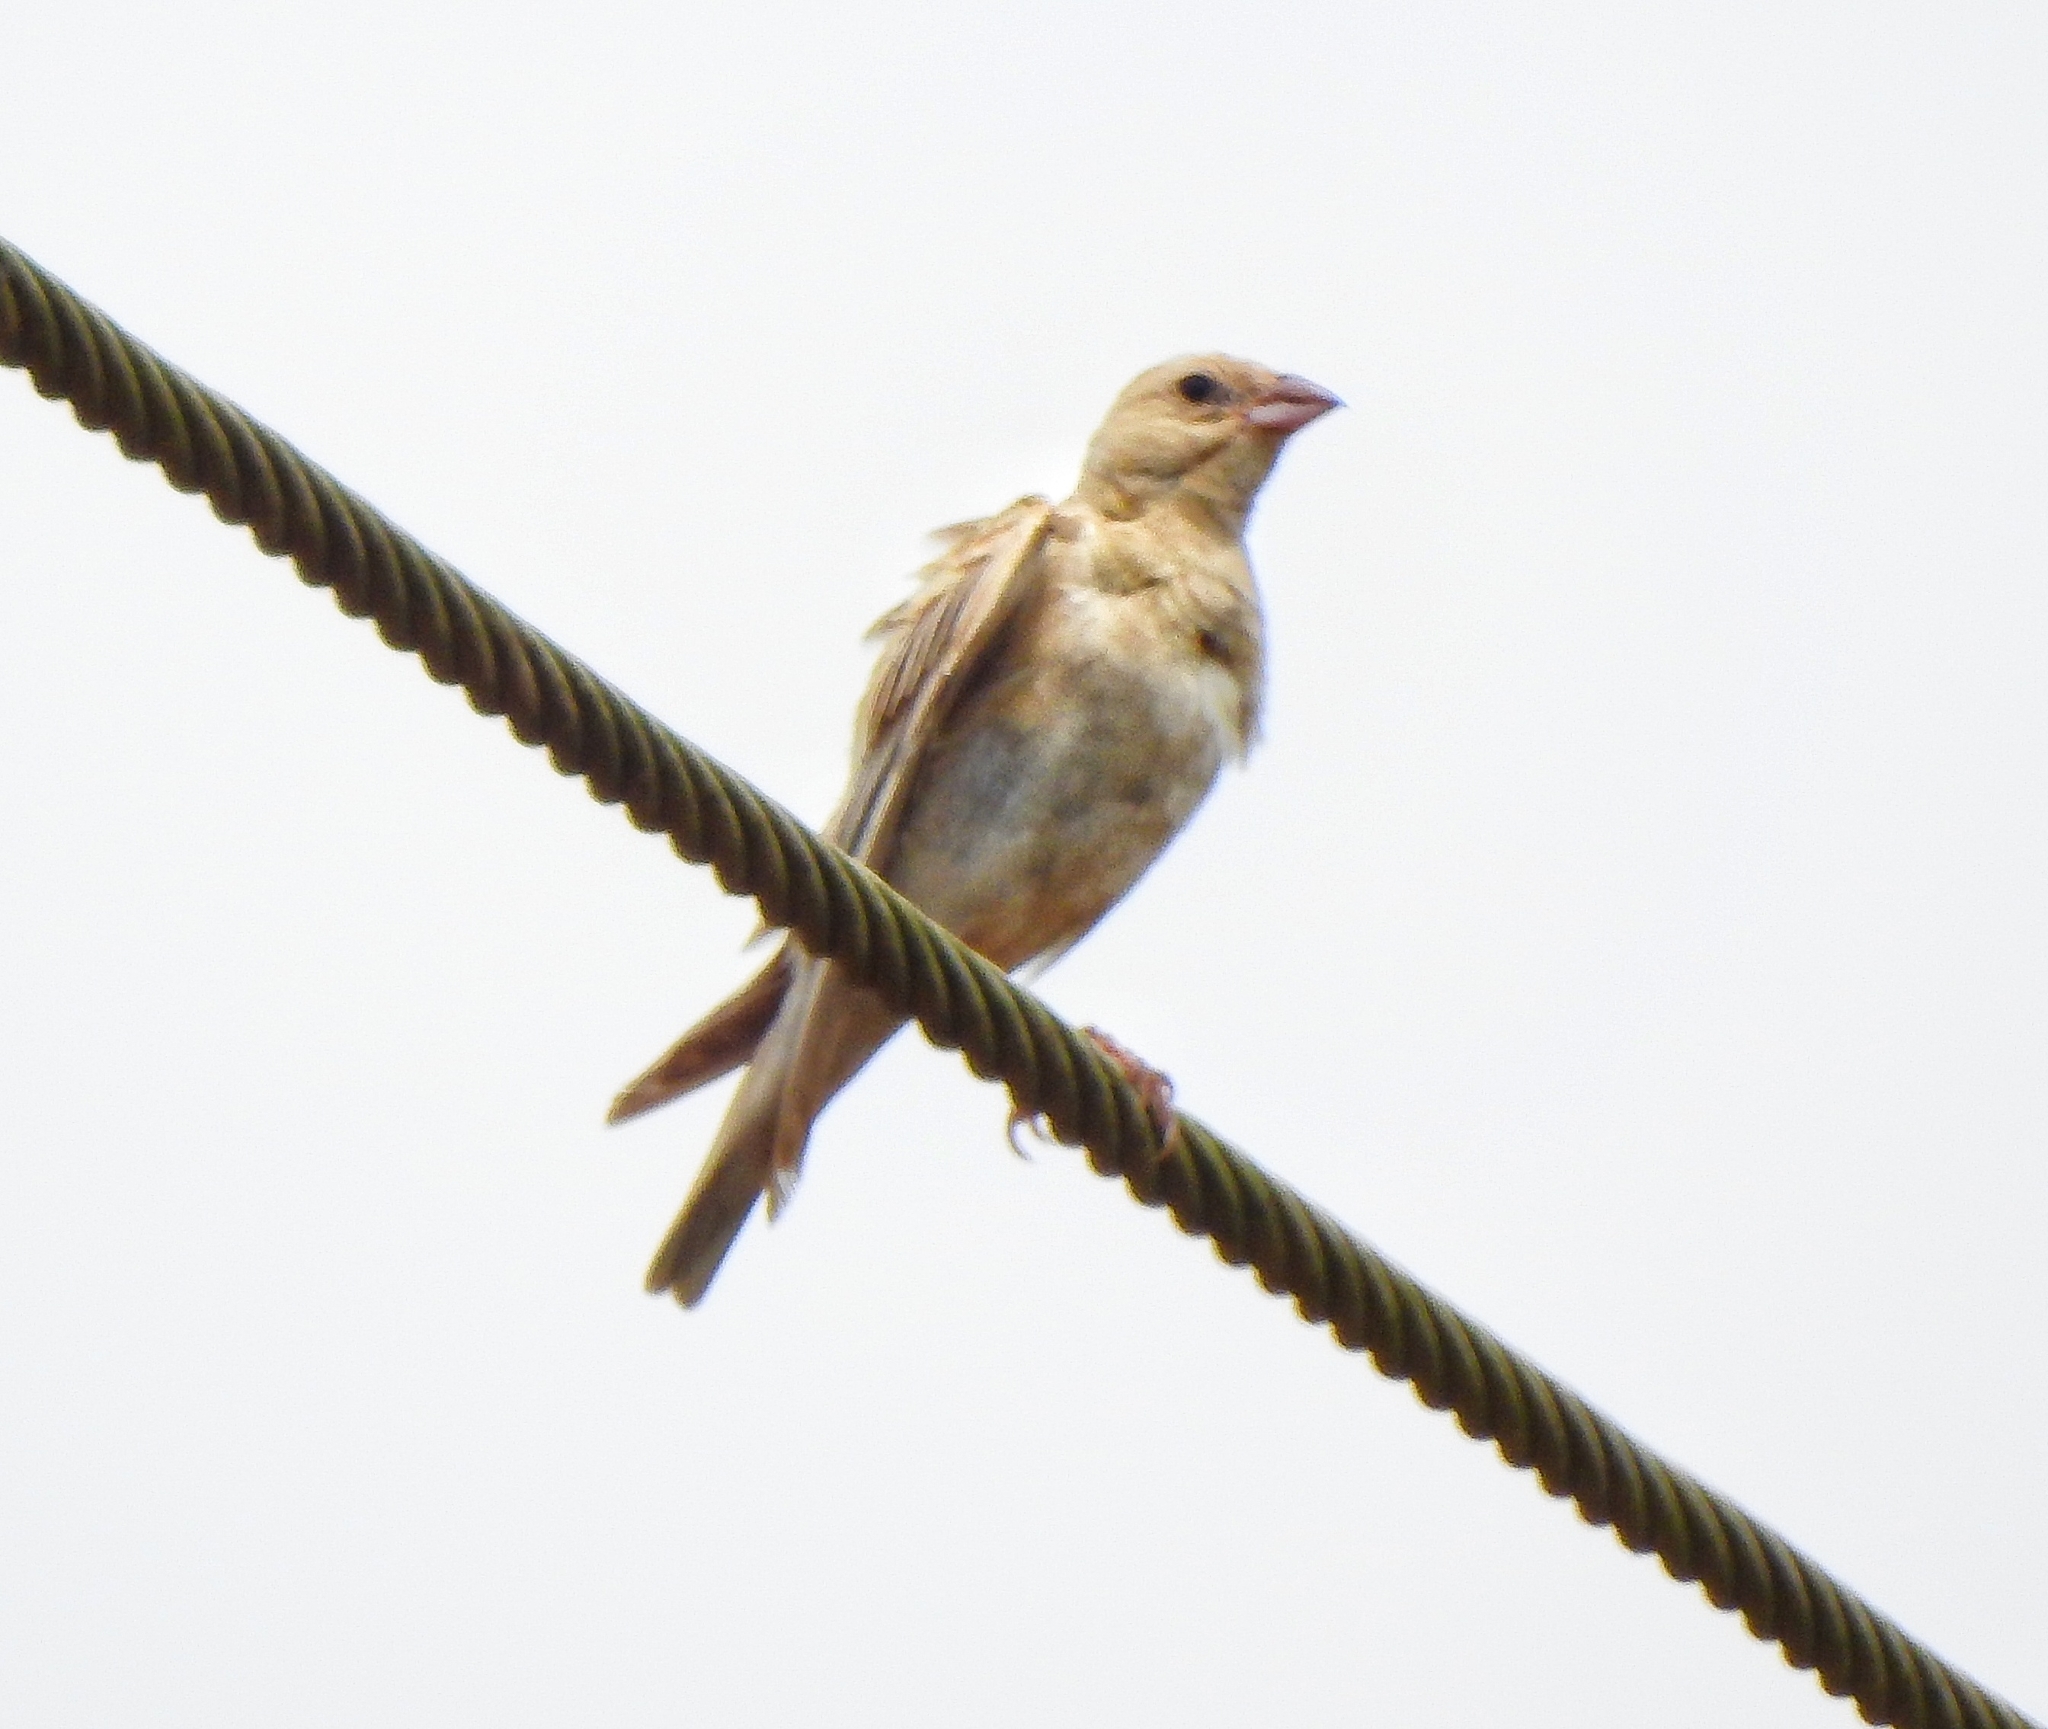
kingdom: Animalia
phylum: Chordata
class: Aves
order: Passeriformes
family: Passeridae
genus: Carpospiza
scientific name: Carpospiza brachydactyla
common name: Pale rockfinch
